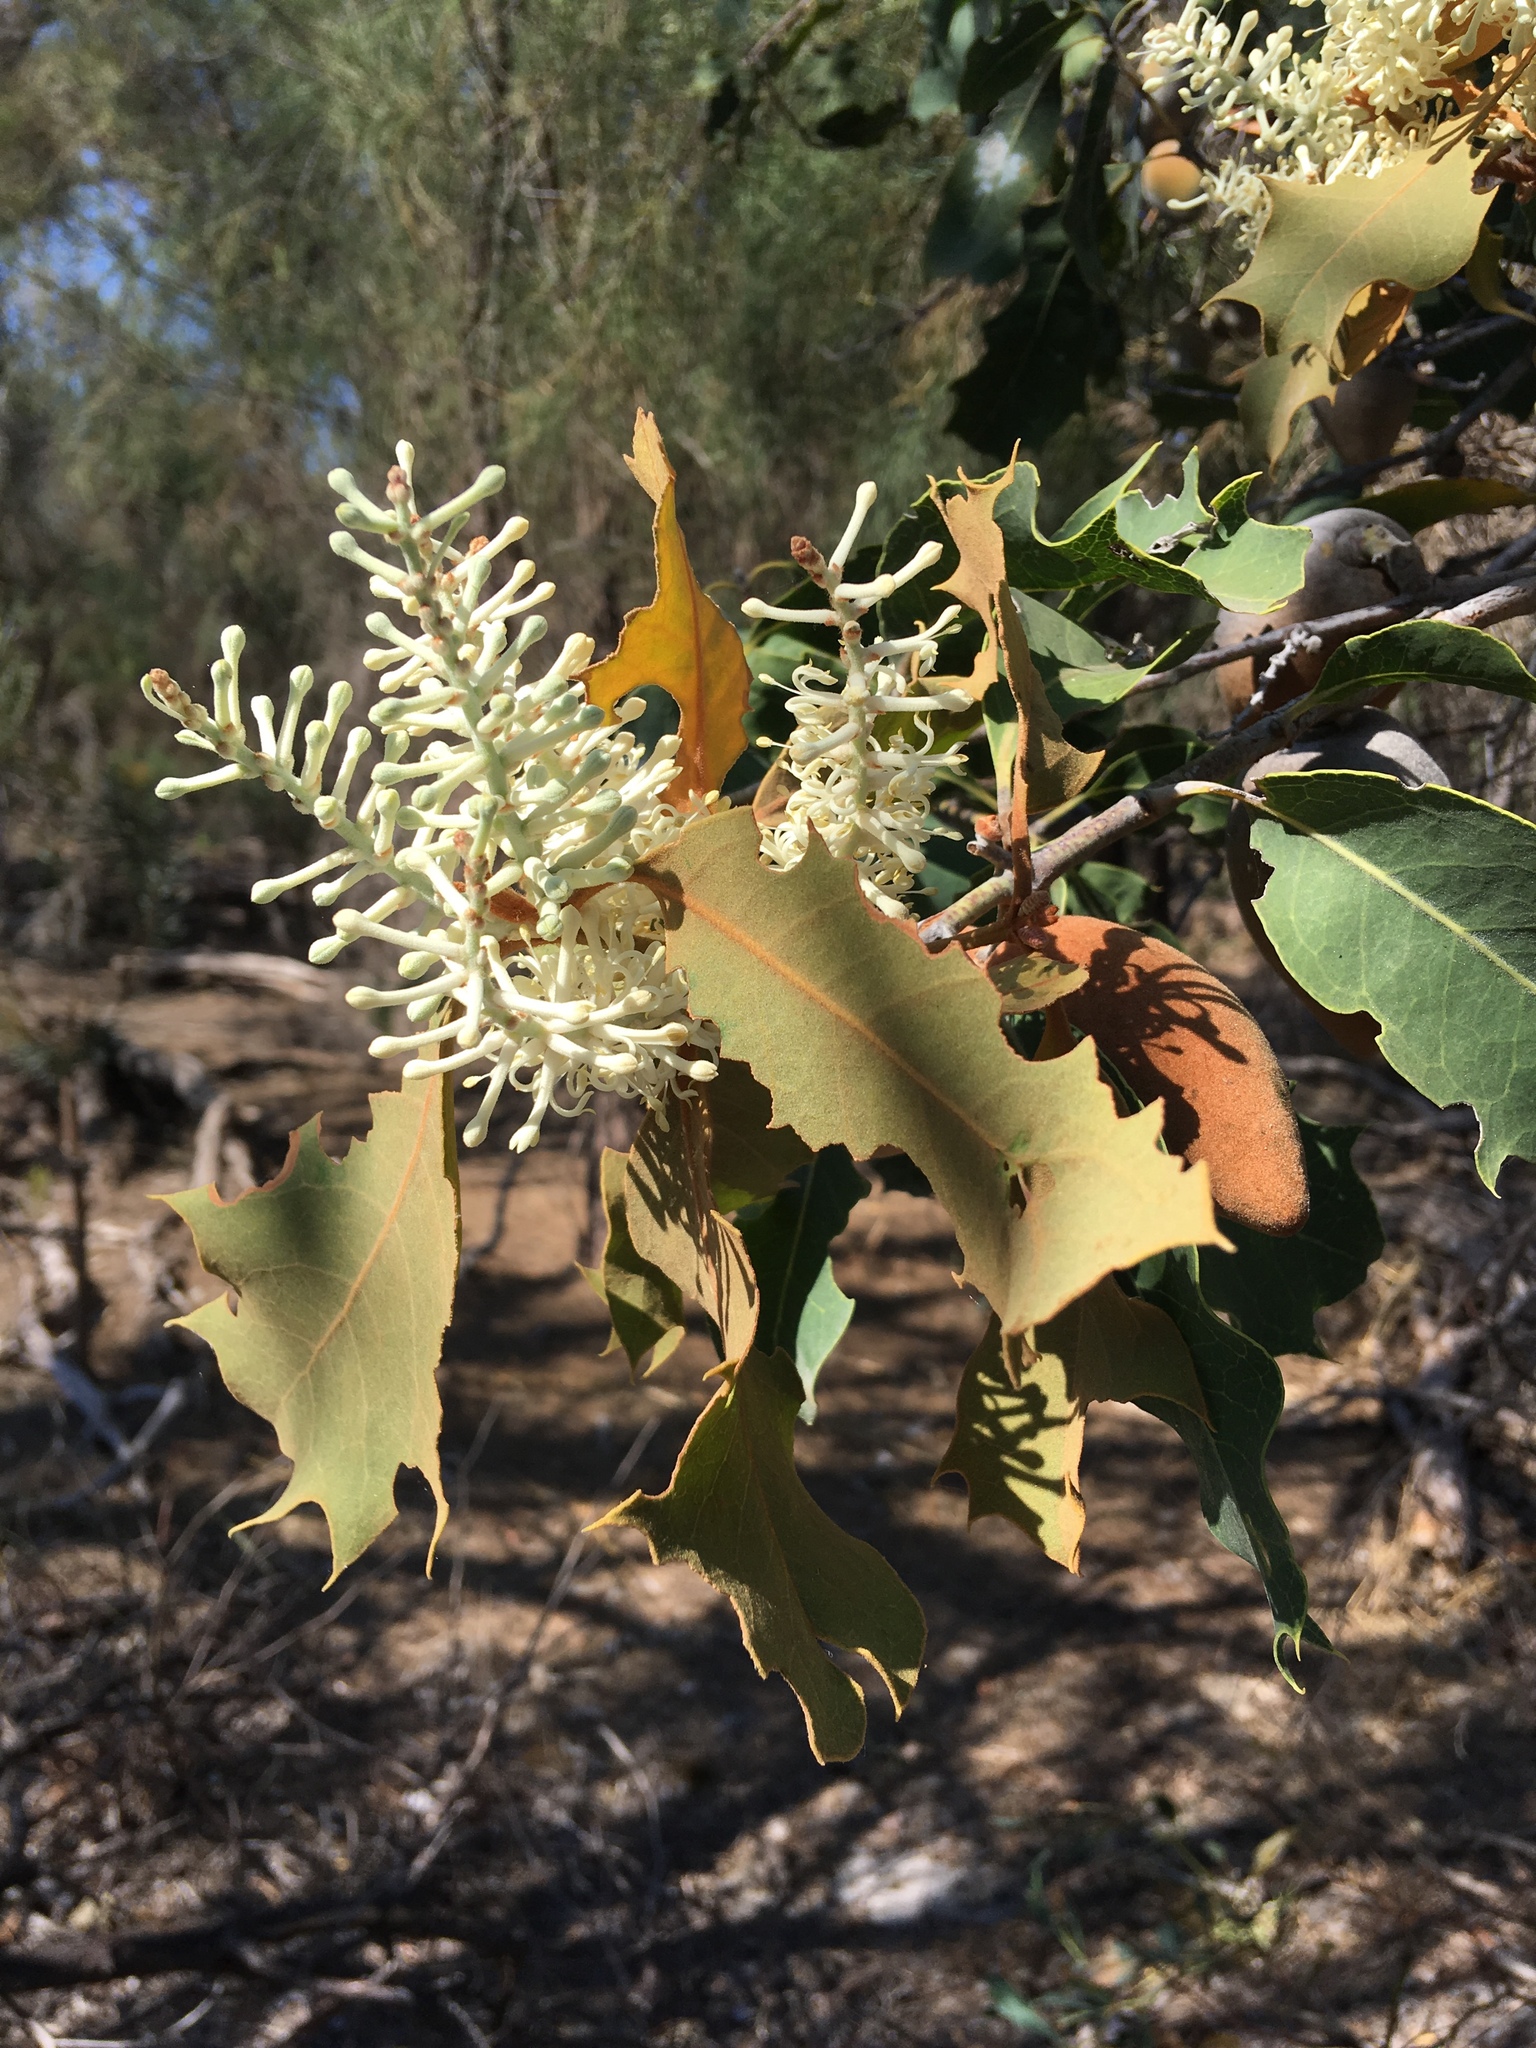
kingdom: Plantae
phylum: Tracheophyta
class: Magnoliopsida
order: Proteales
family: Proteaceae
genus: Xylomelum
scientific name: Xylomelum occidentale
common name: Western woody-pear
